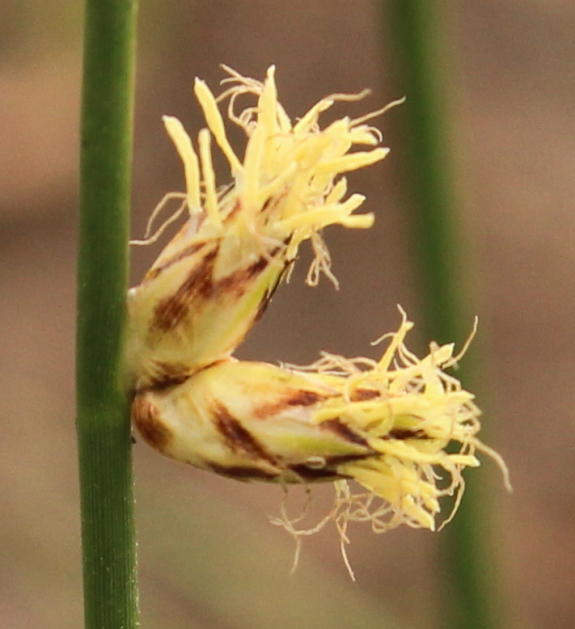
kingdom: Plantae
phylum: Tracheophyta
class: Liliopsida
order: Poales
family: Cyperaceae
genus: Schoenoplectiella
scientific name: Schoenoplectiella decipiens
